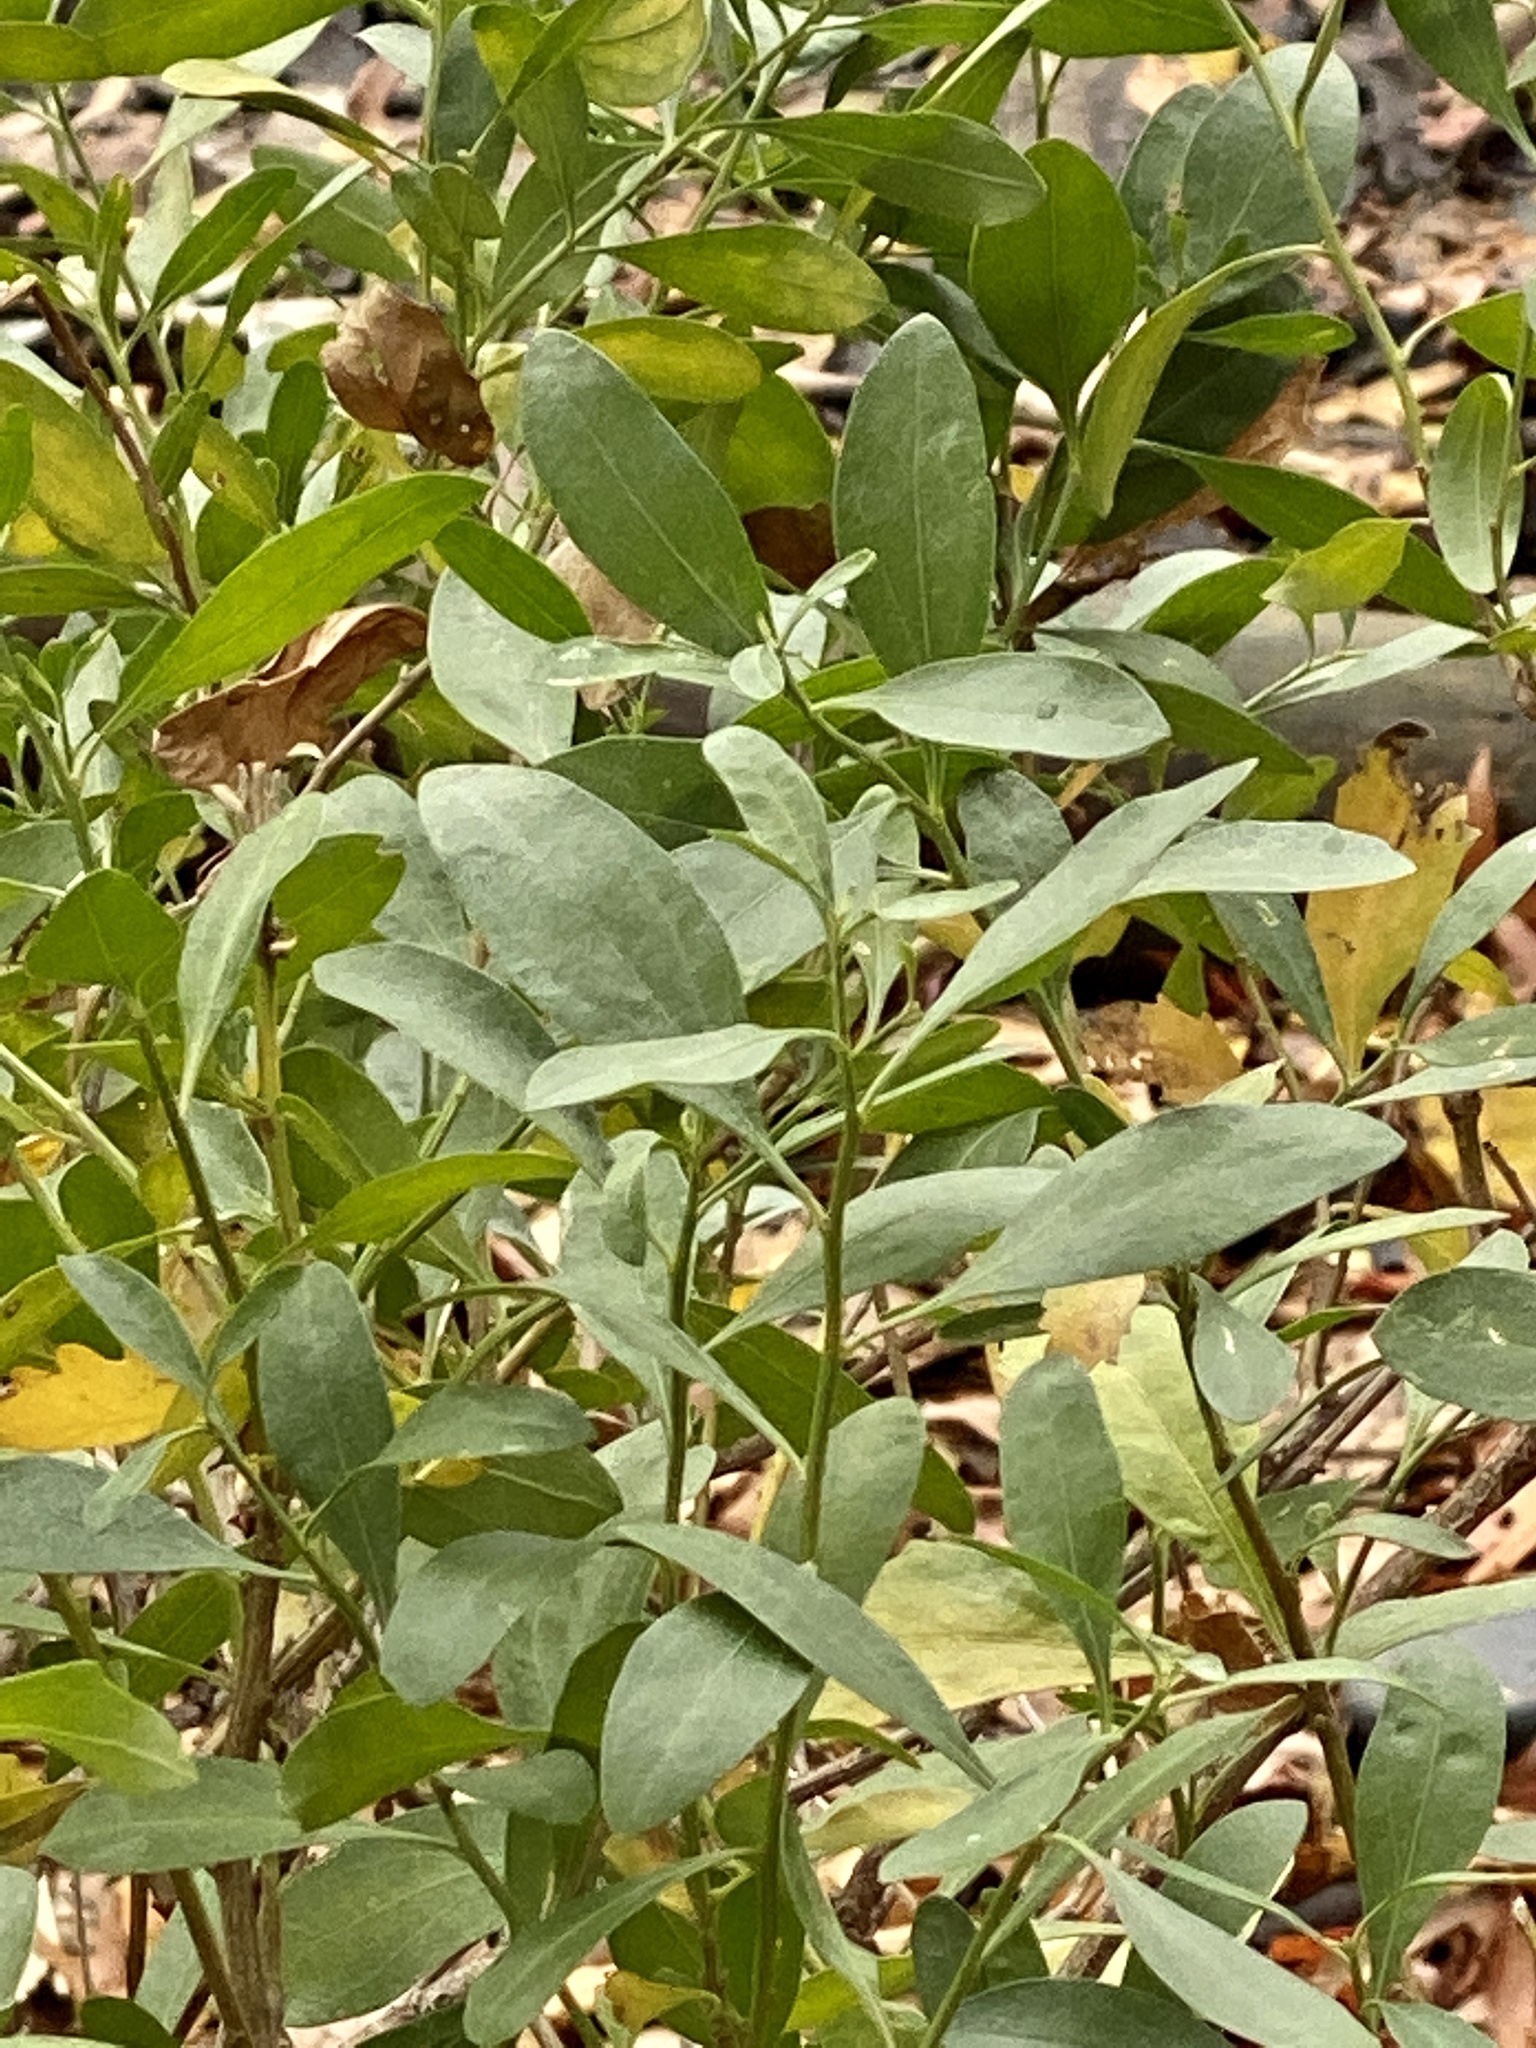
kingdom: Plantae
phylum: Tracheophyta
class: Magnoliopsida
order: Asterales
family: Asteraceae
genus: Baccharis
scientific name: Baccharis halimifolia
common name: Eastern baccharis
